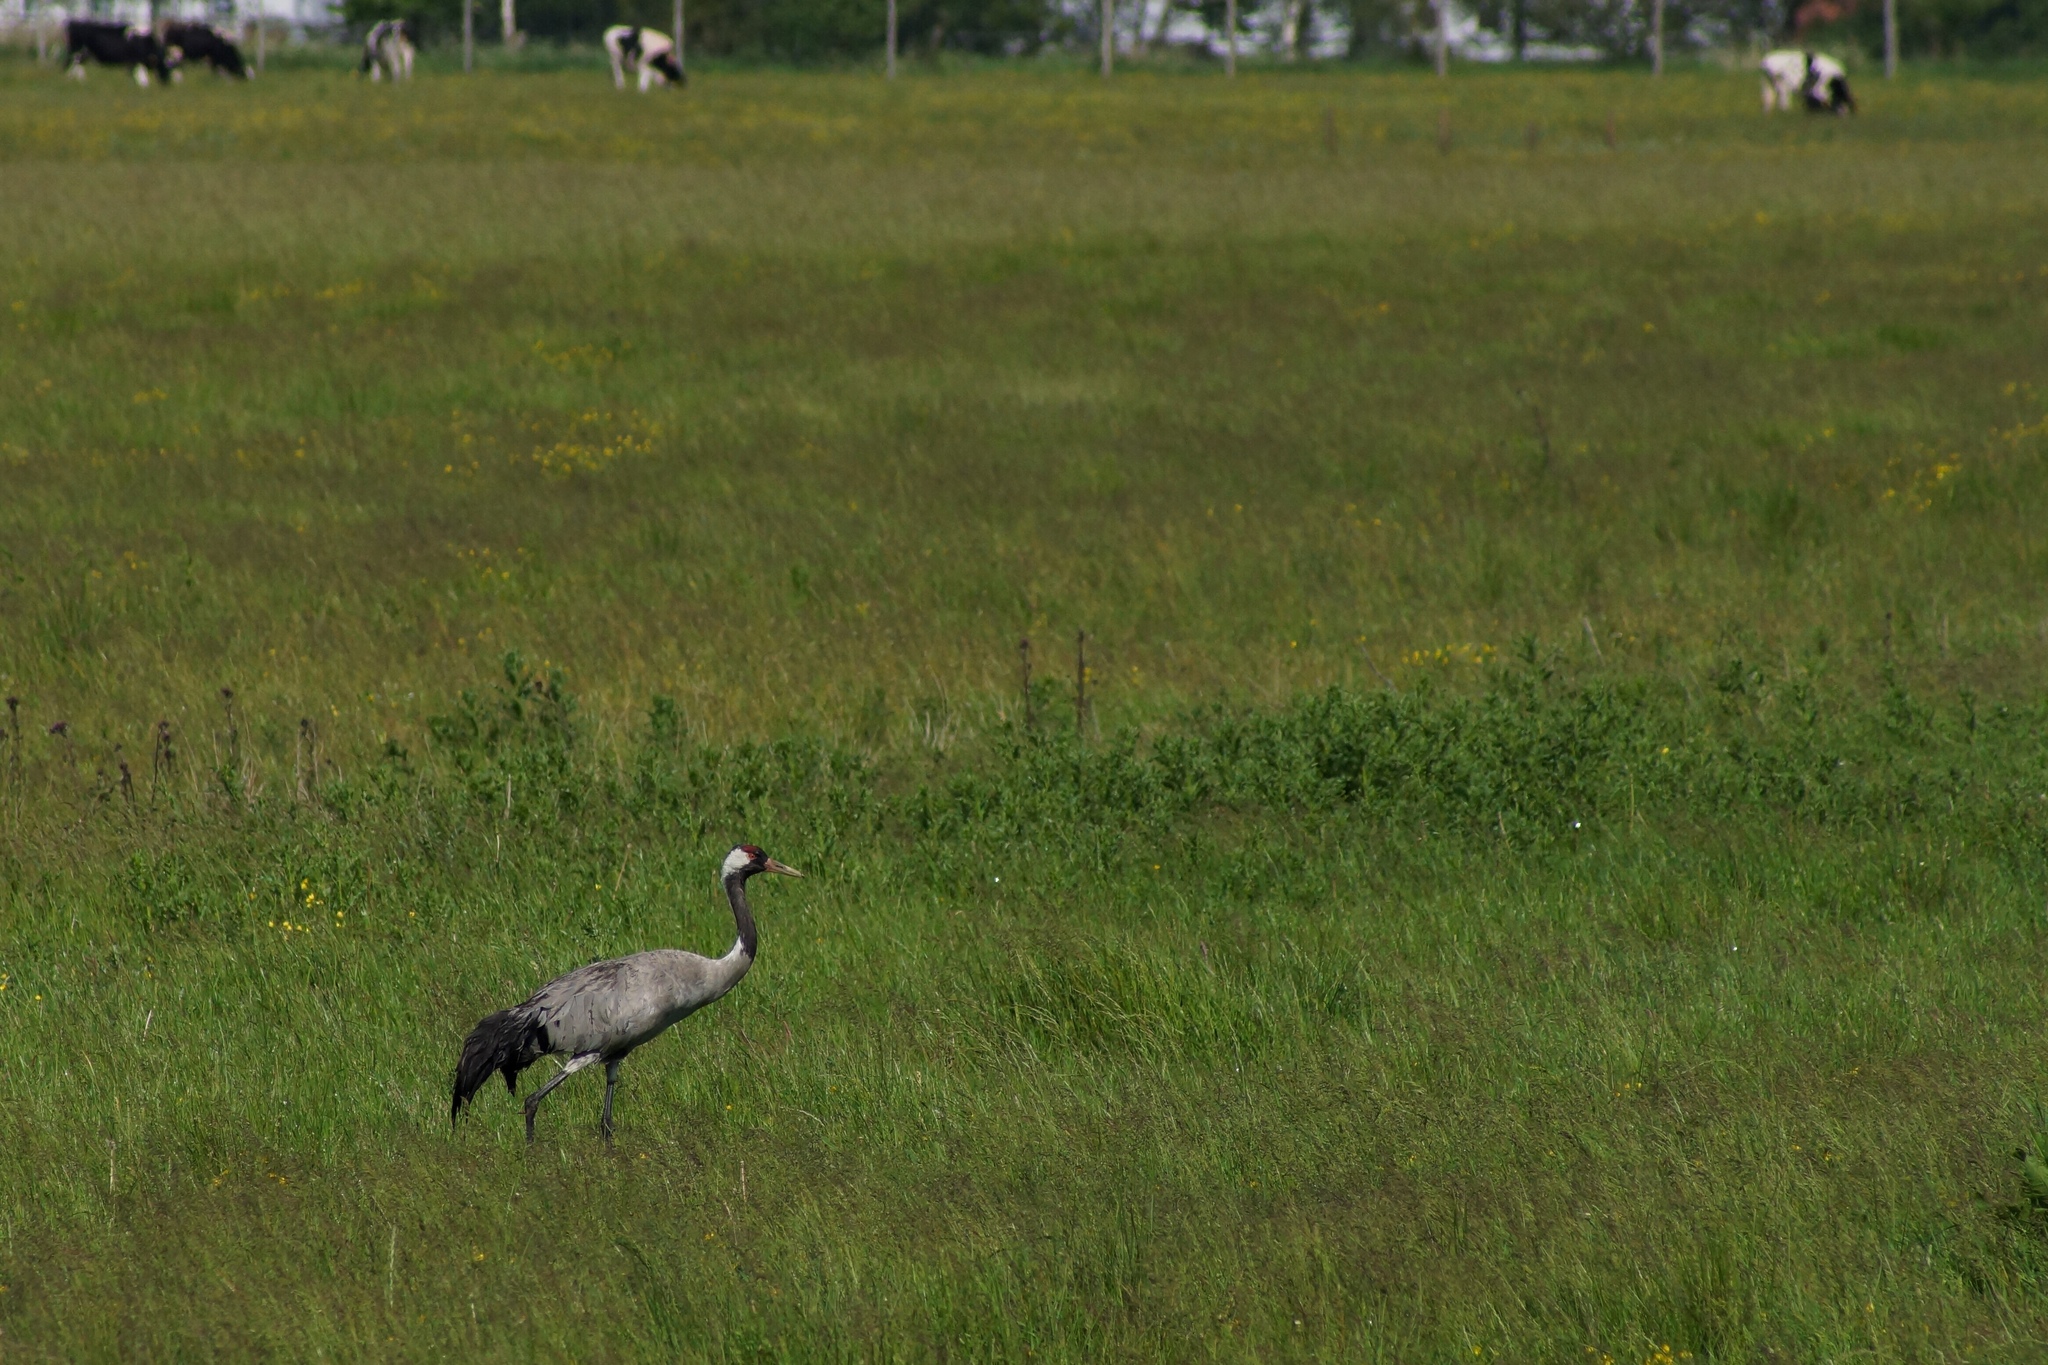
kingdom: Animalia
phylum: Chordata
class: Aves
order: Gruiformes
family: Gruidae
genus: Grus
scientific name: Grus grus
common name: Common crane
